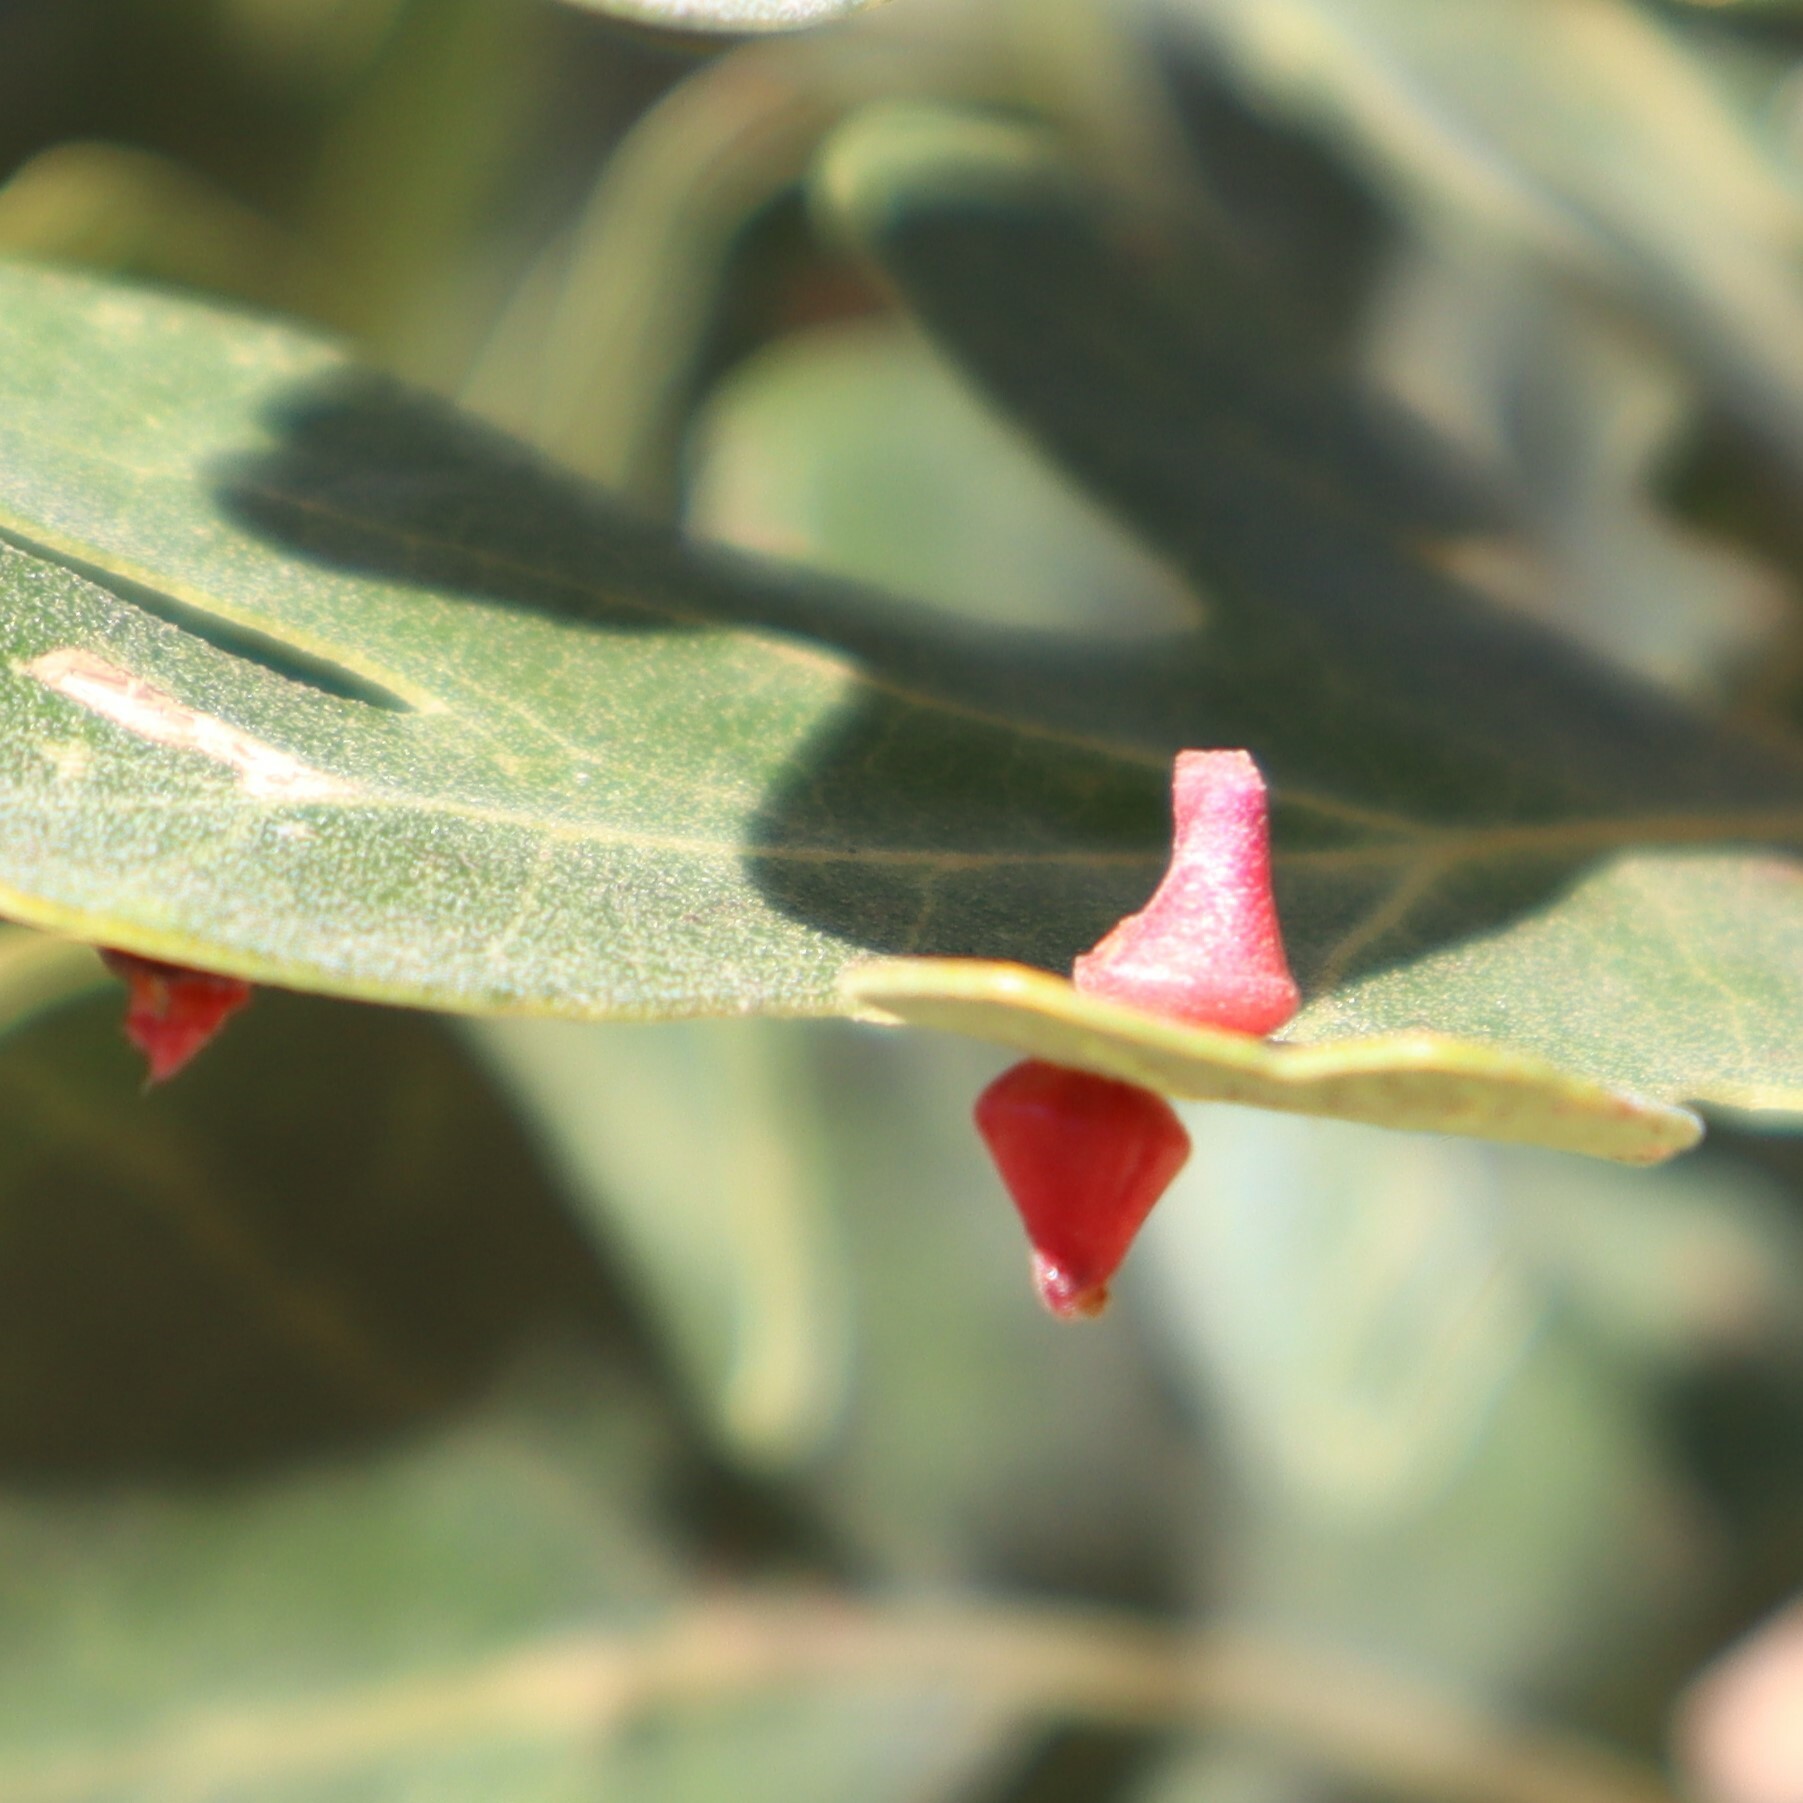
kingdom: Animalia
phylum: Arthropoda
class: Insecta
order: Hymenoptera
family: Cynipidae
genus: Andricus
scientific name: Andricus
